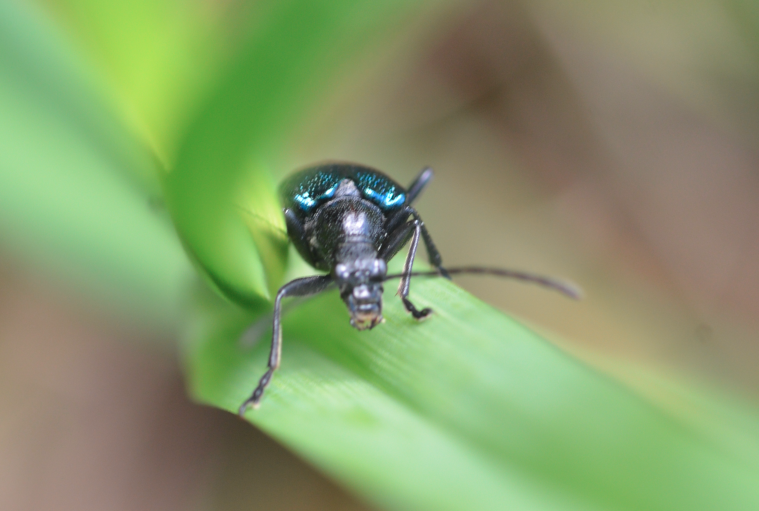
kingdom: Animalia
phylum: Arthropoda
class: Insecta
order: Coleoptera
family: Cerambycidae
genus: Gaurotes
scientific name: Gaurotes virginea
